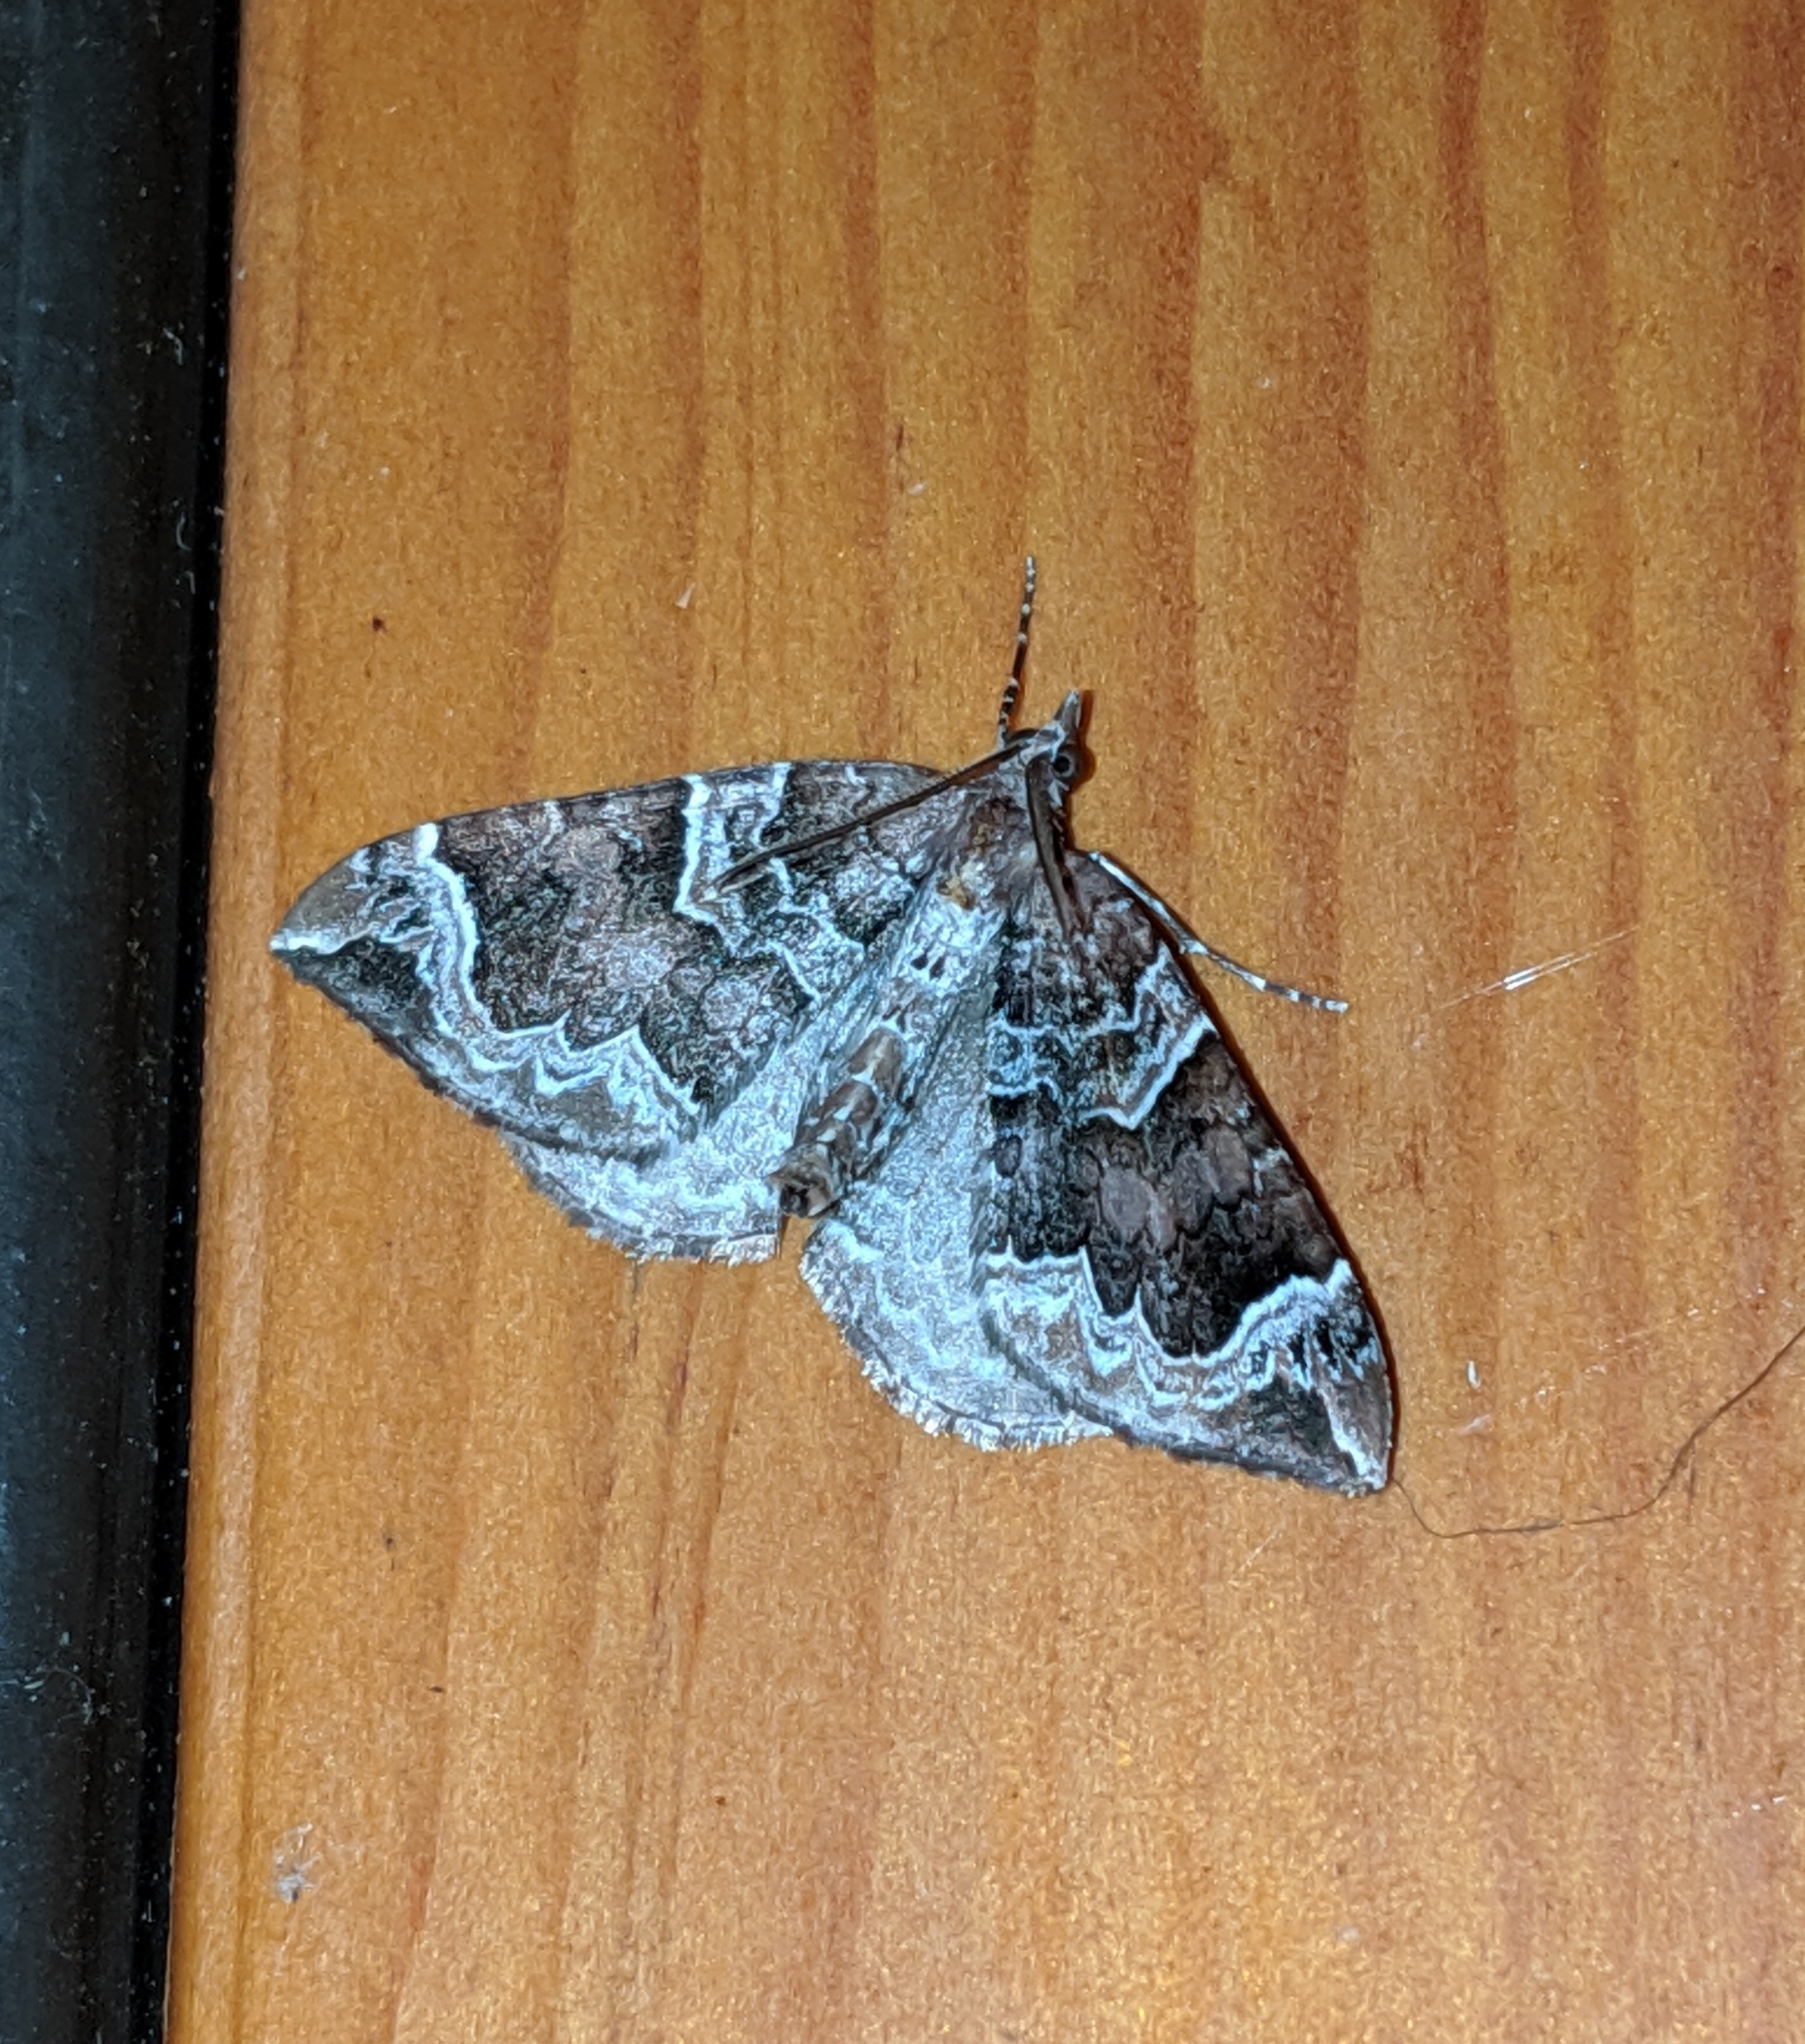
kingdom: Animalia
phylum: Arthropoda
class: Insecta
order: Lepidoptera
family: Geometridae
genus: Eulithis
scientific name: Eulithis xylina
